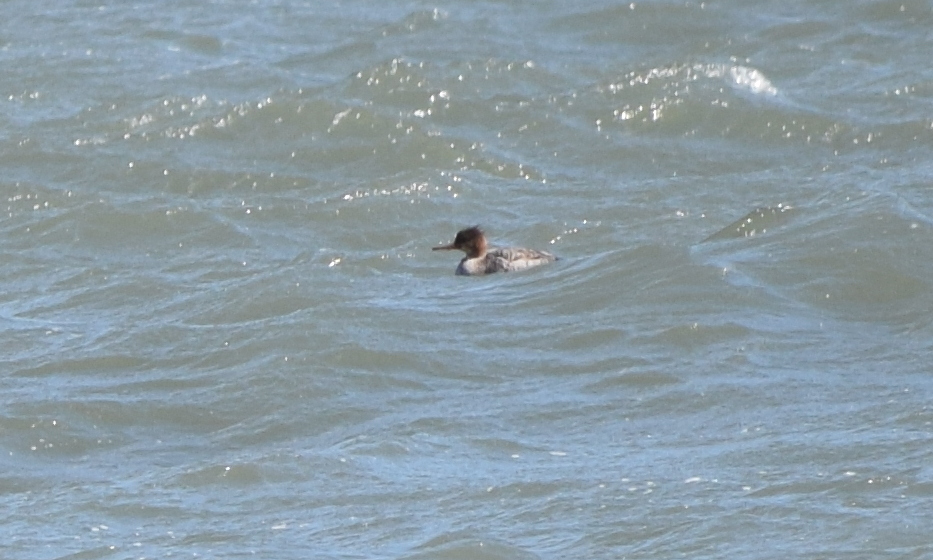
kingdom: Animalia
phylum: Chordata
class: Aves
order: Anseriformes
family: Anatidae
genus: Mergus
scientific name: Mergus serrator
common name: Red-breasted merganser
